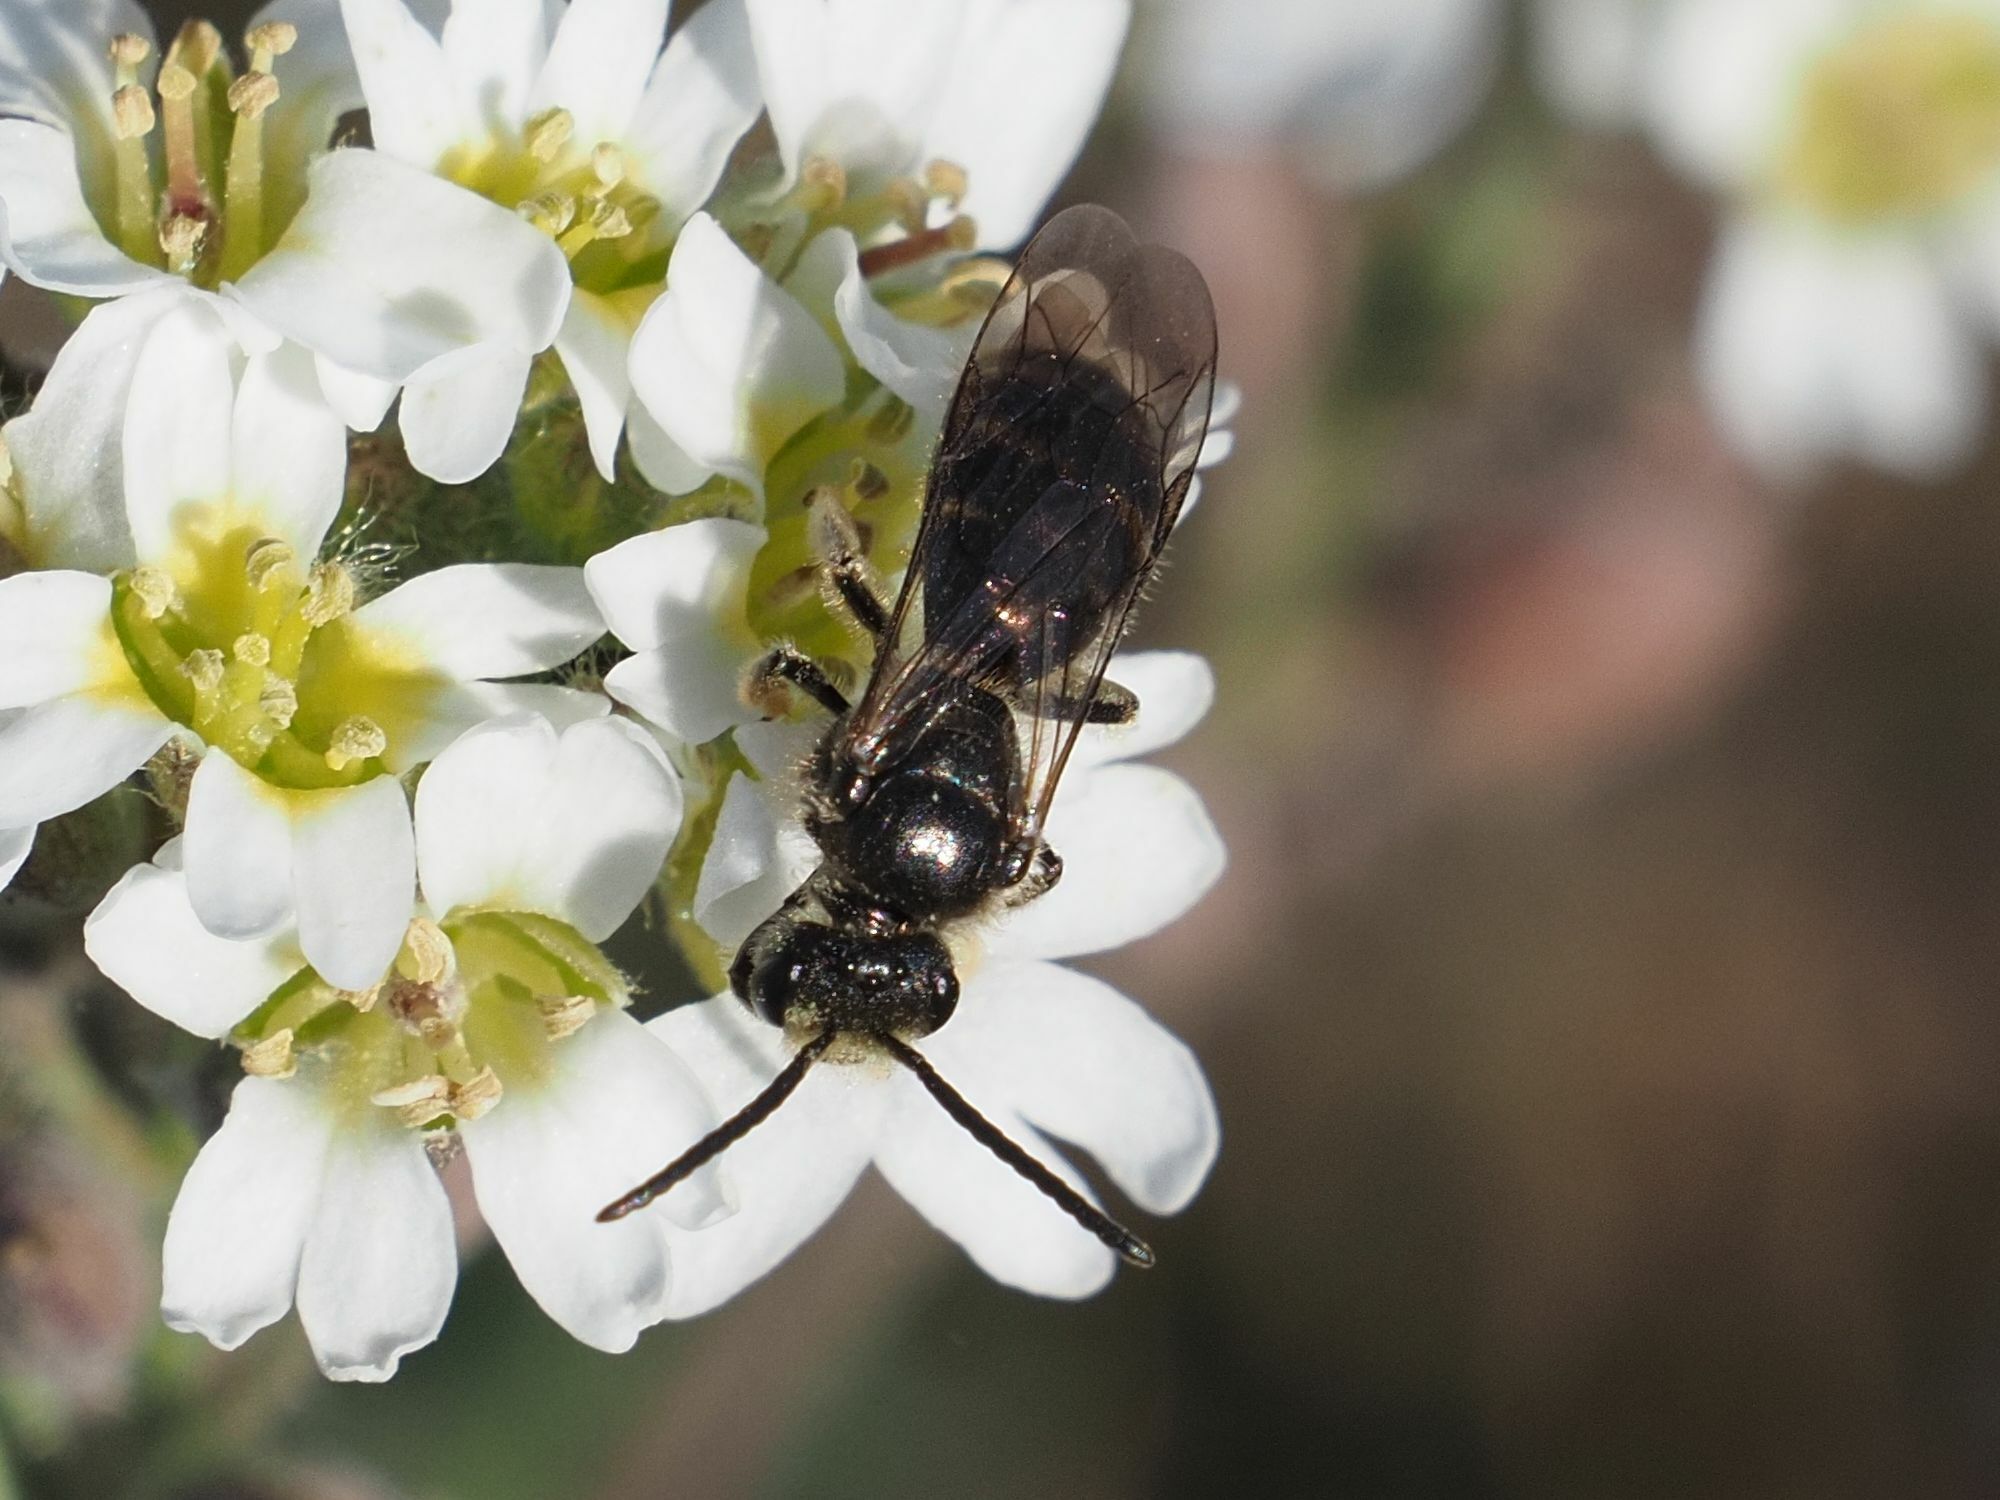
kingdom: Animalia
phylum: Arthropoda
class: Insecta
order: Hymenoptera
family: Halictidae
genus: Lasioglossum
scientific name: Lasioglossum marginatum
